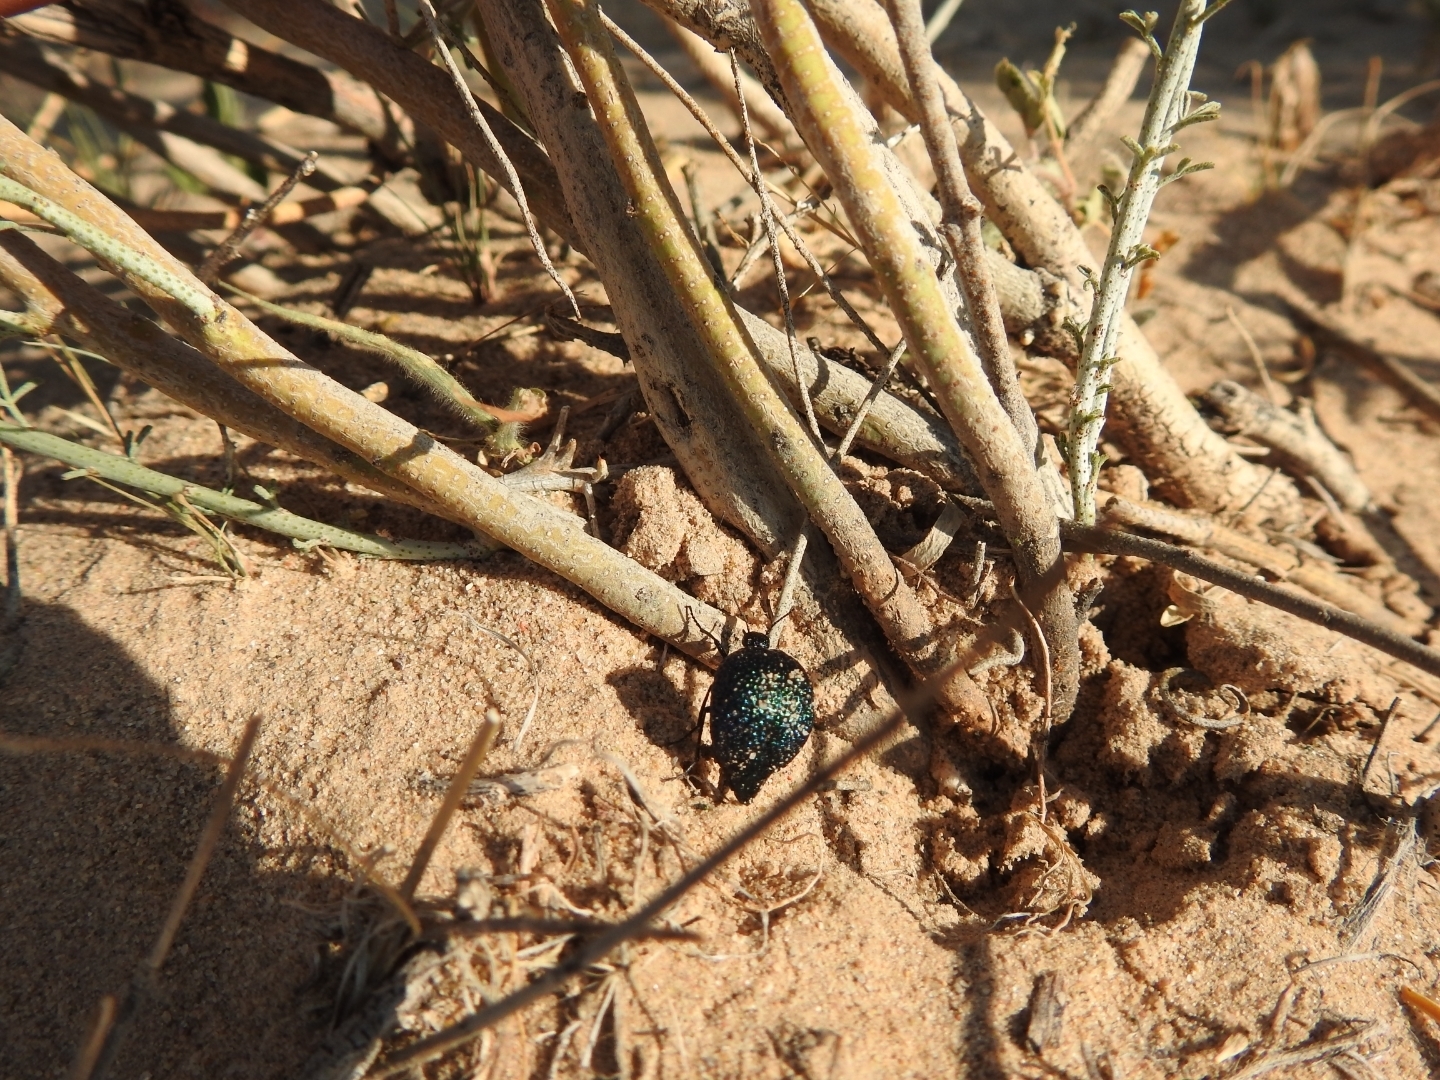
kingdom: Animalia
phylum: Arthropoda
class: Insecta
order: Coleoptera
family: Meloidae
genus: Cysteodemus
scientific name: Cysteodemus wislizeni
